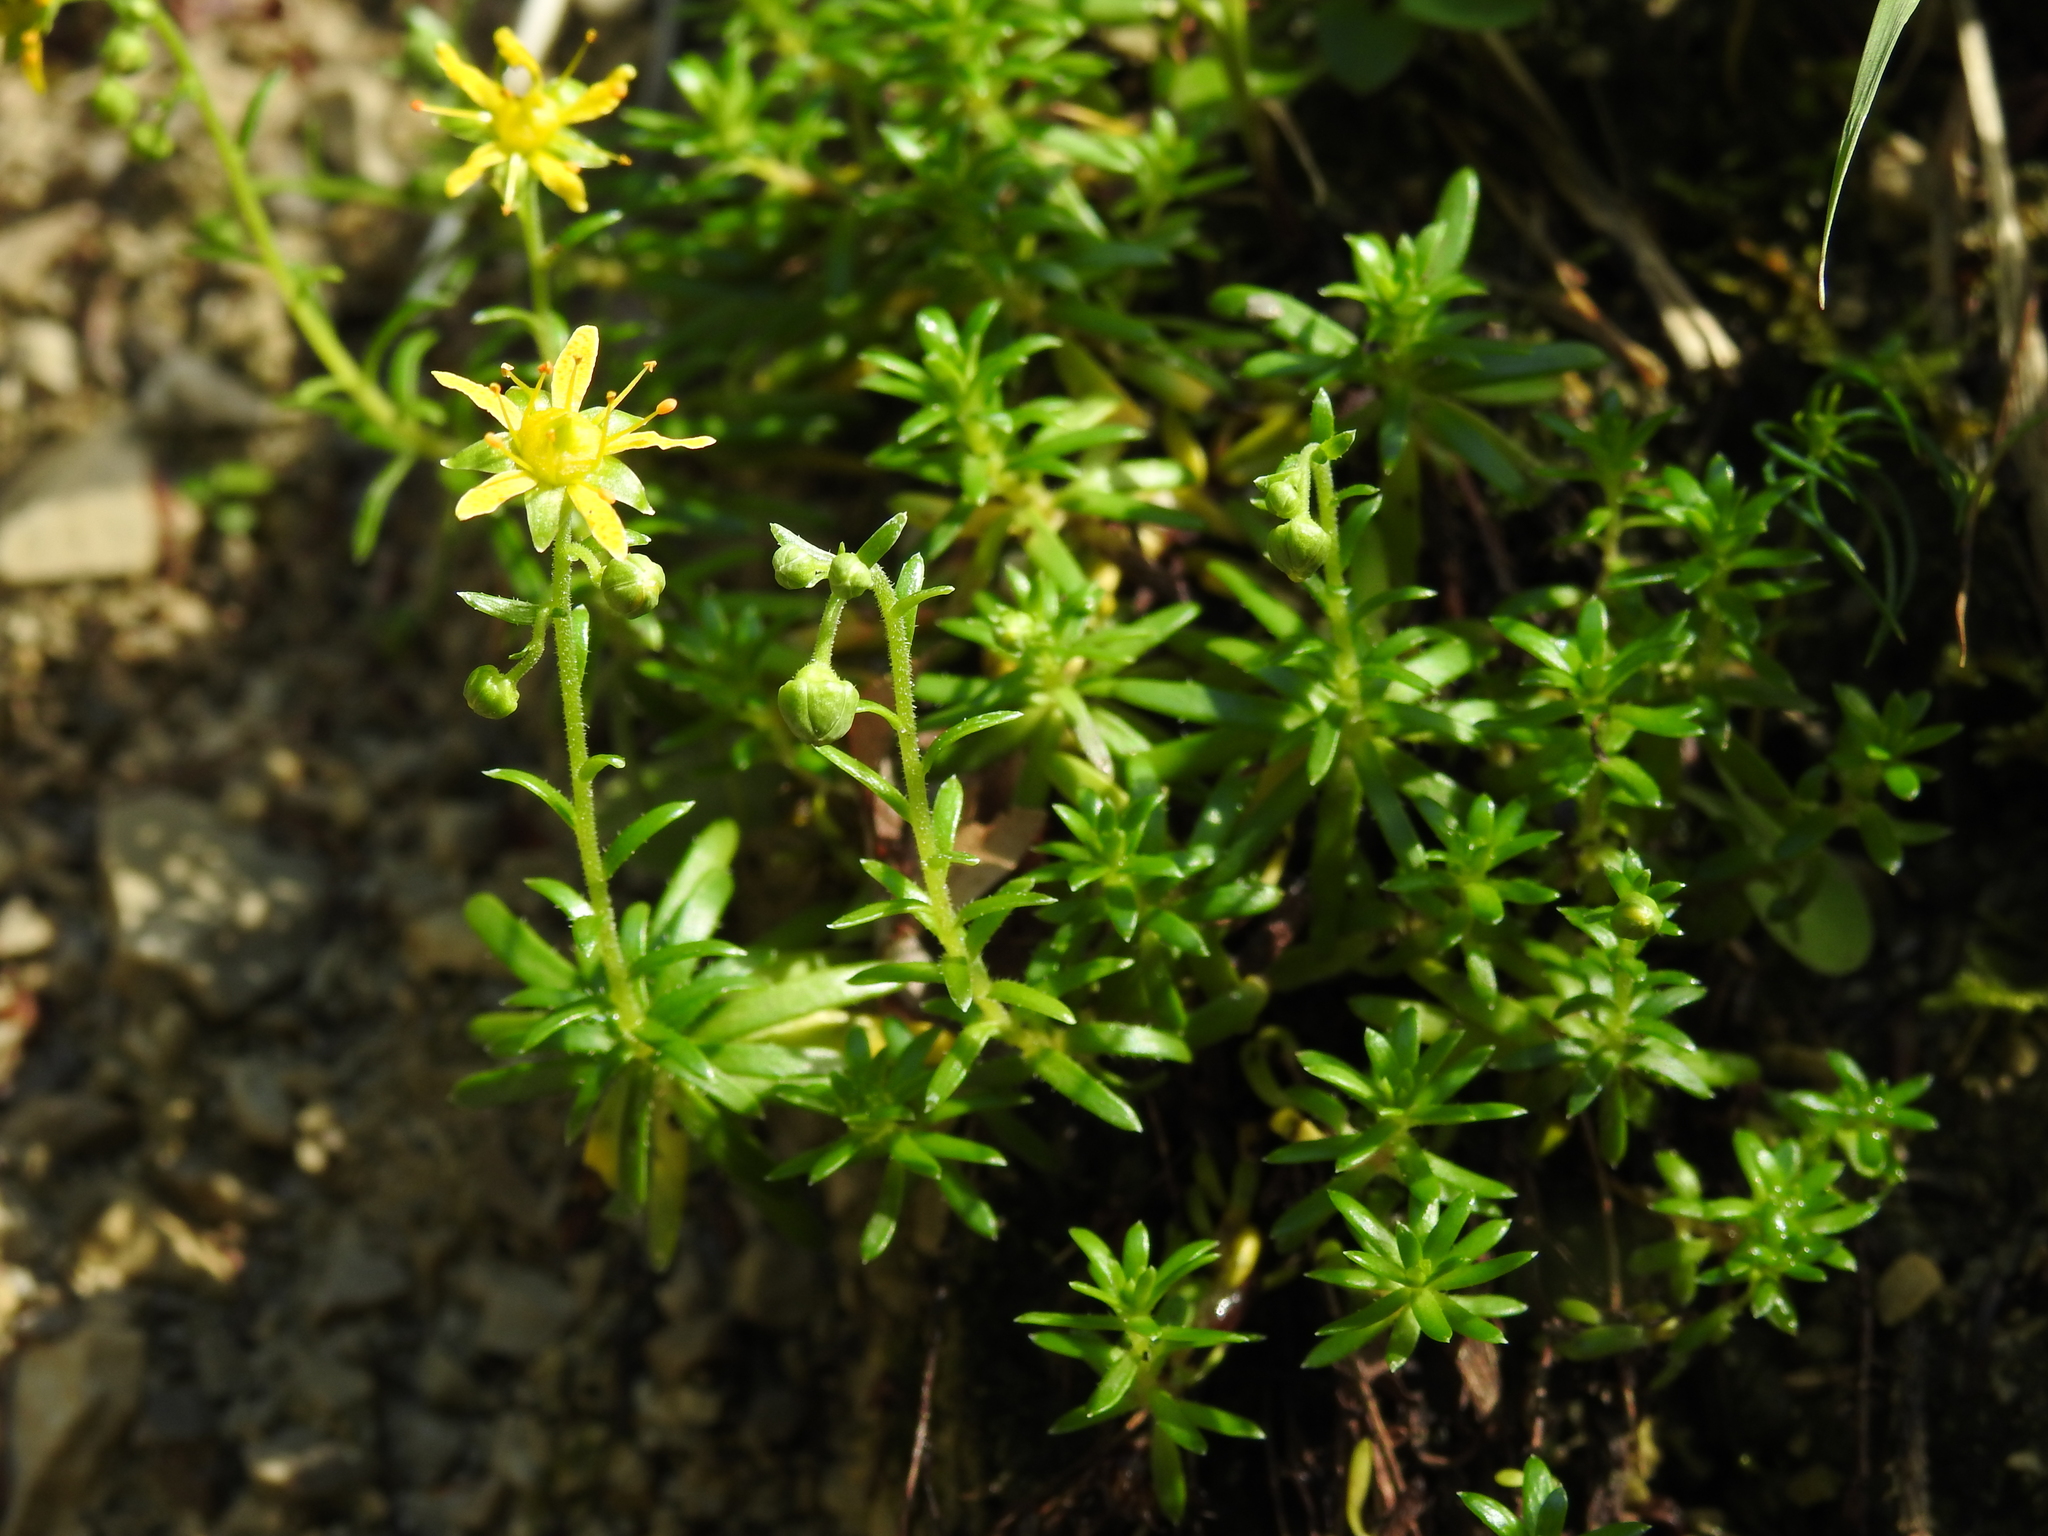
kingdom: Plantae
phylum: Tracheophyta
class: Magnoliopsida
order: Saxifragales
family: Saxifragaceae
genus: Saxifraga
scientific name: Saxifraga aizoides
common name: Yellow mountain saxifrage
